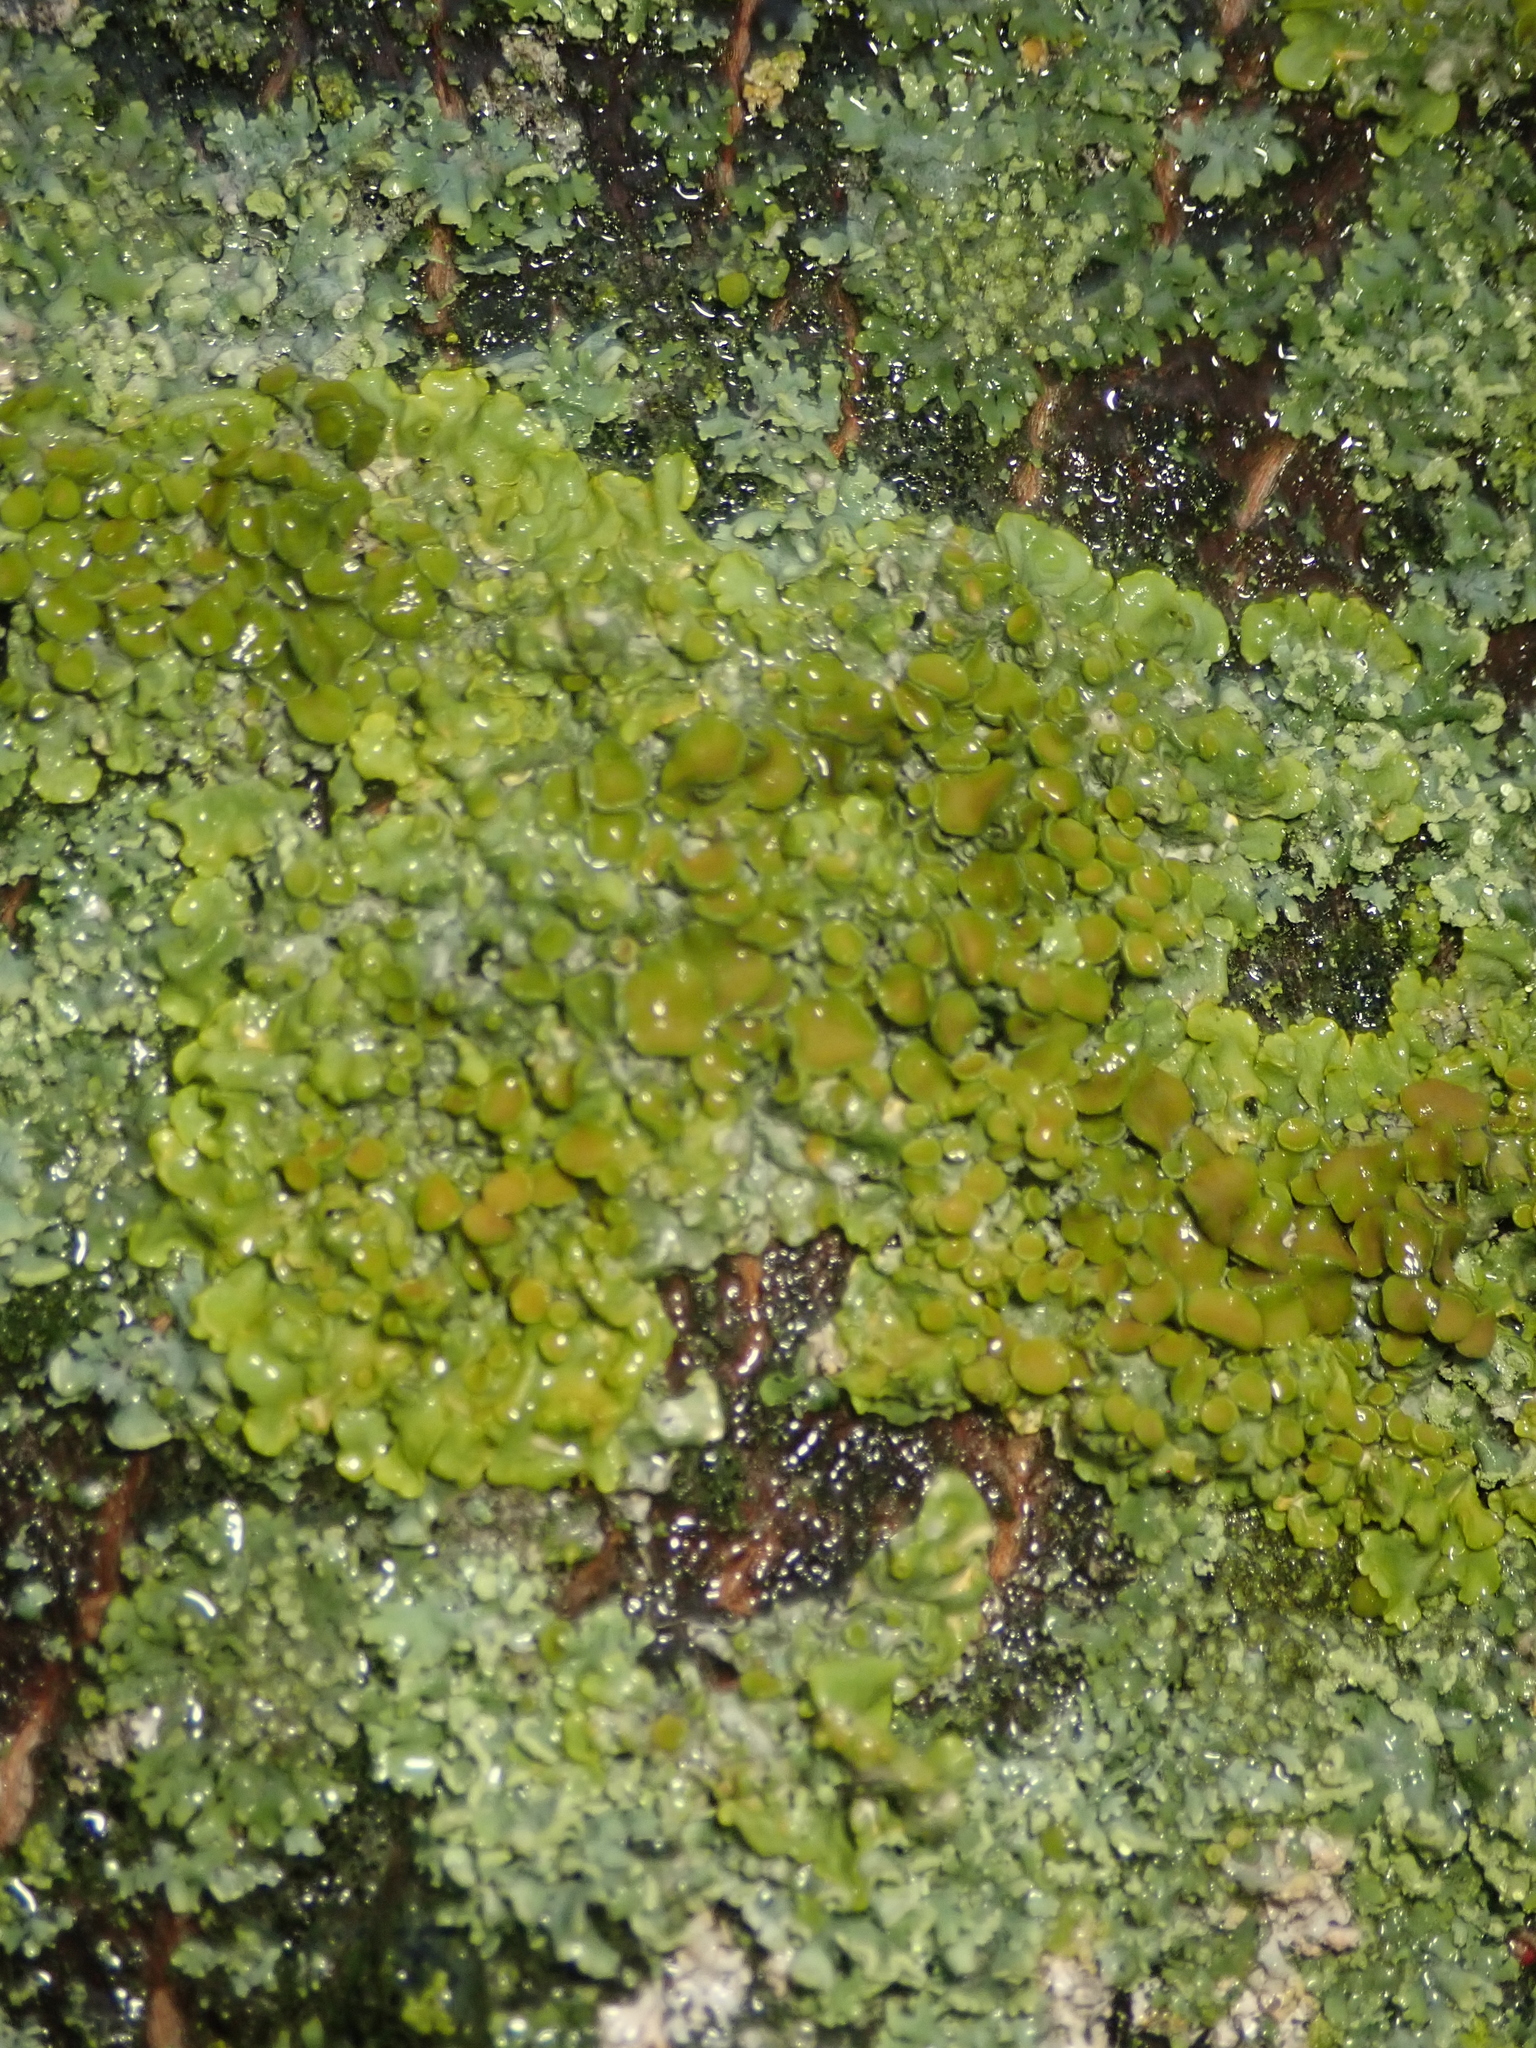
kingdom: Fungi
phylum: Ascomycota
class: Lecanoromycetes
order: Teloschistales
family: Teloschistaceae
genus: Xanthoria
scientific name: Xanthoria parietina
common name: Common orange lichen
